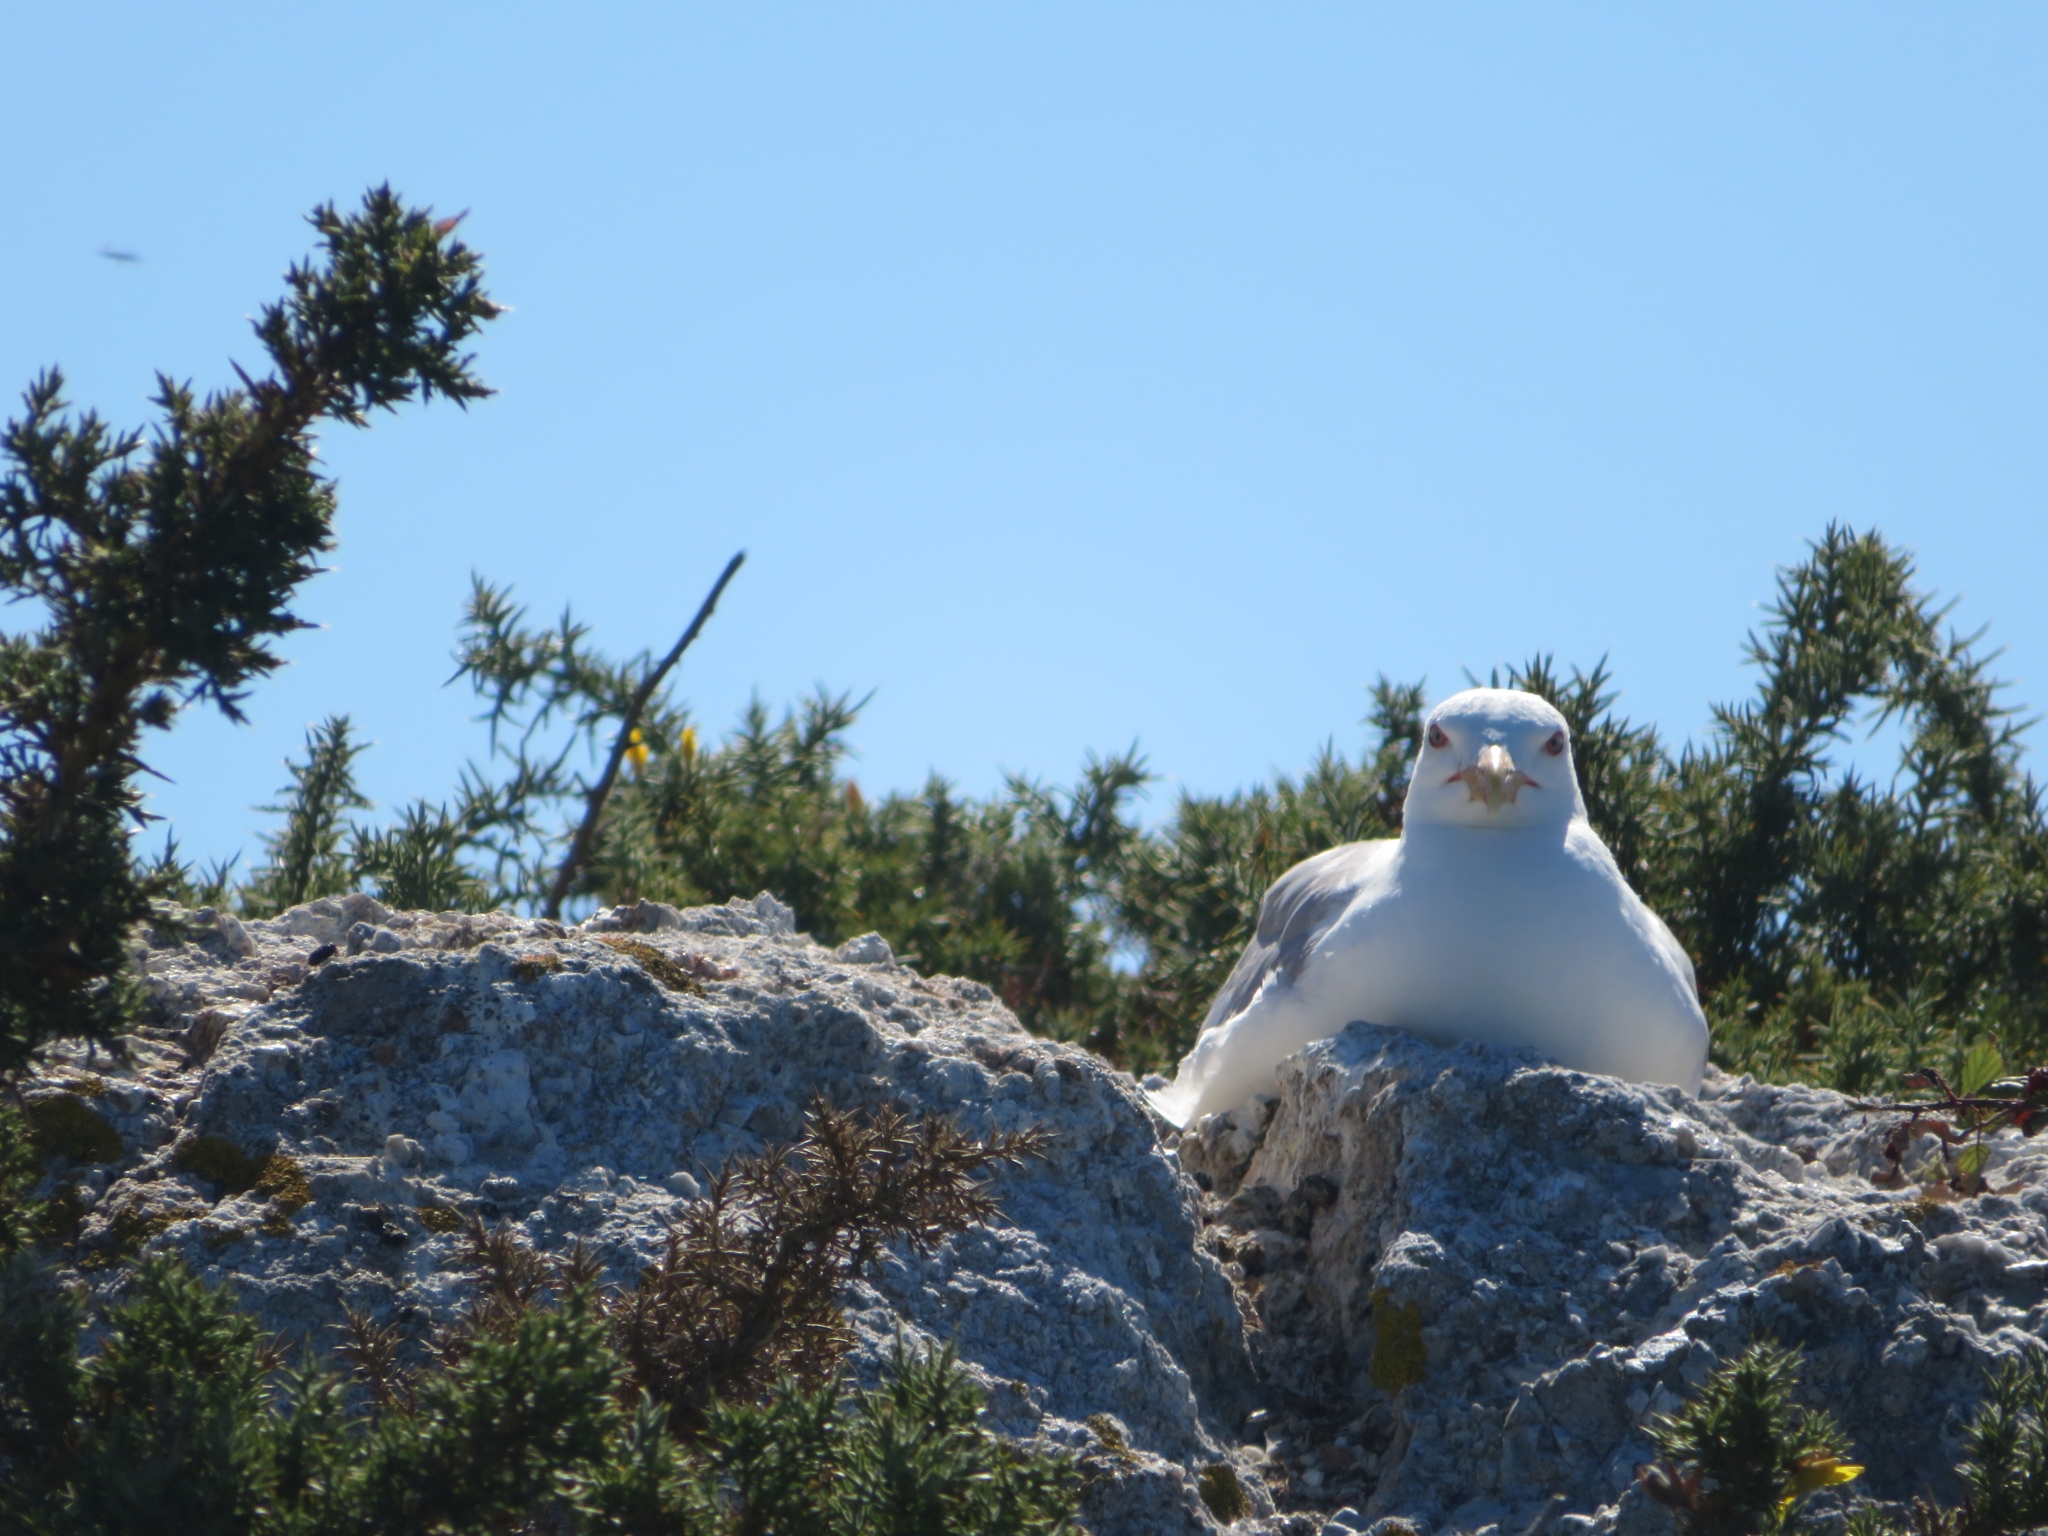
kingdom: Animalia
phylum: Chordata
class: Aves
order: Charadriiformes
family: Laridae
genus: Larus
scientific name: Larus michahellis
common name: Yellow-legged gull
